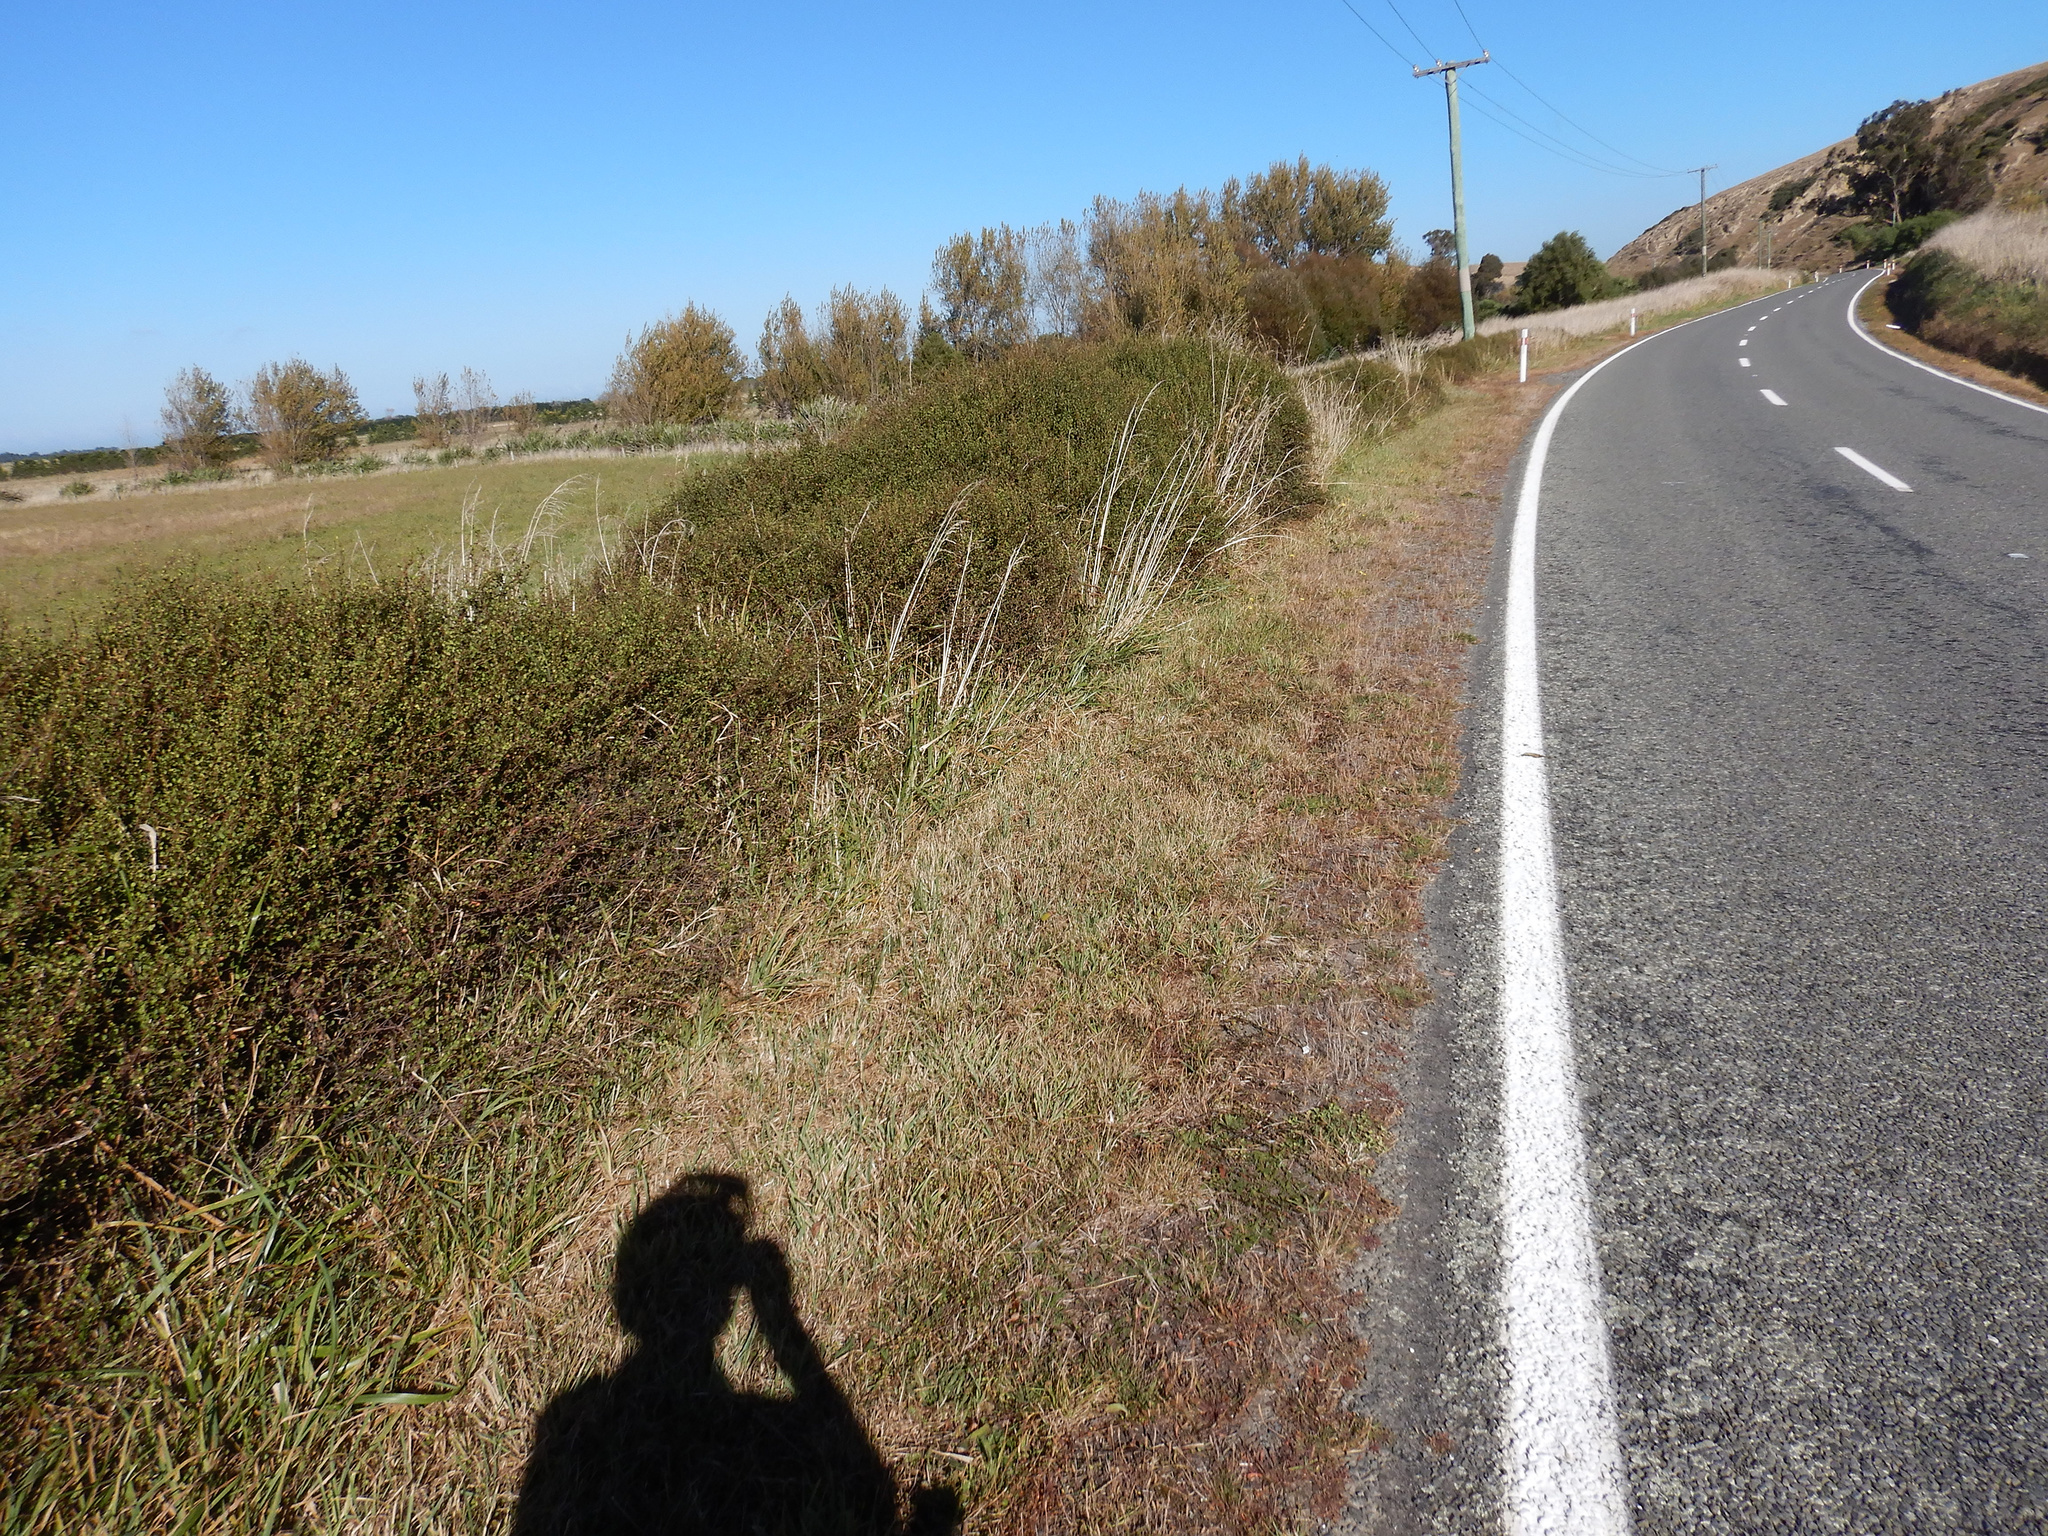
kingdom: Plantae
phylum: Tracheophyta
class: Magnoliopsida
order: Caryophyllales
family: Polygonaceae
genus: Muehlenbeckia
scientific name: Muehlenbeckia complexa
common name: Wireplant
